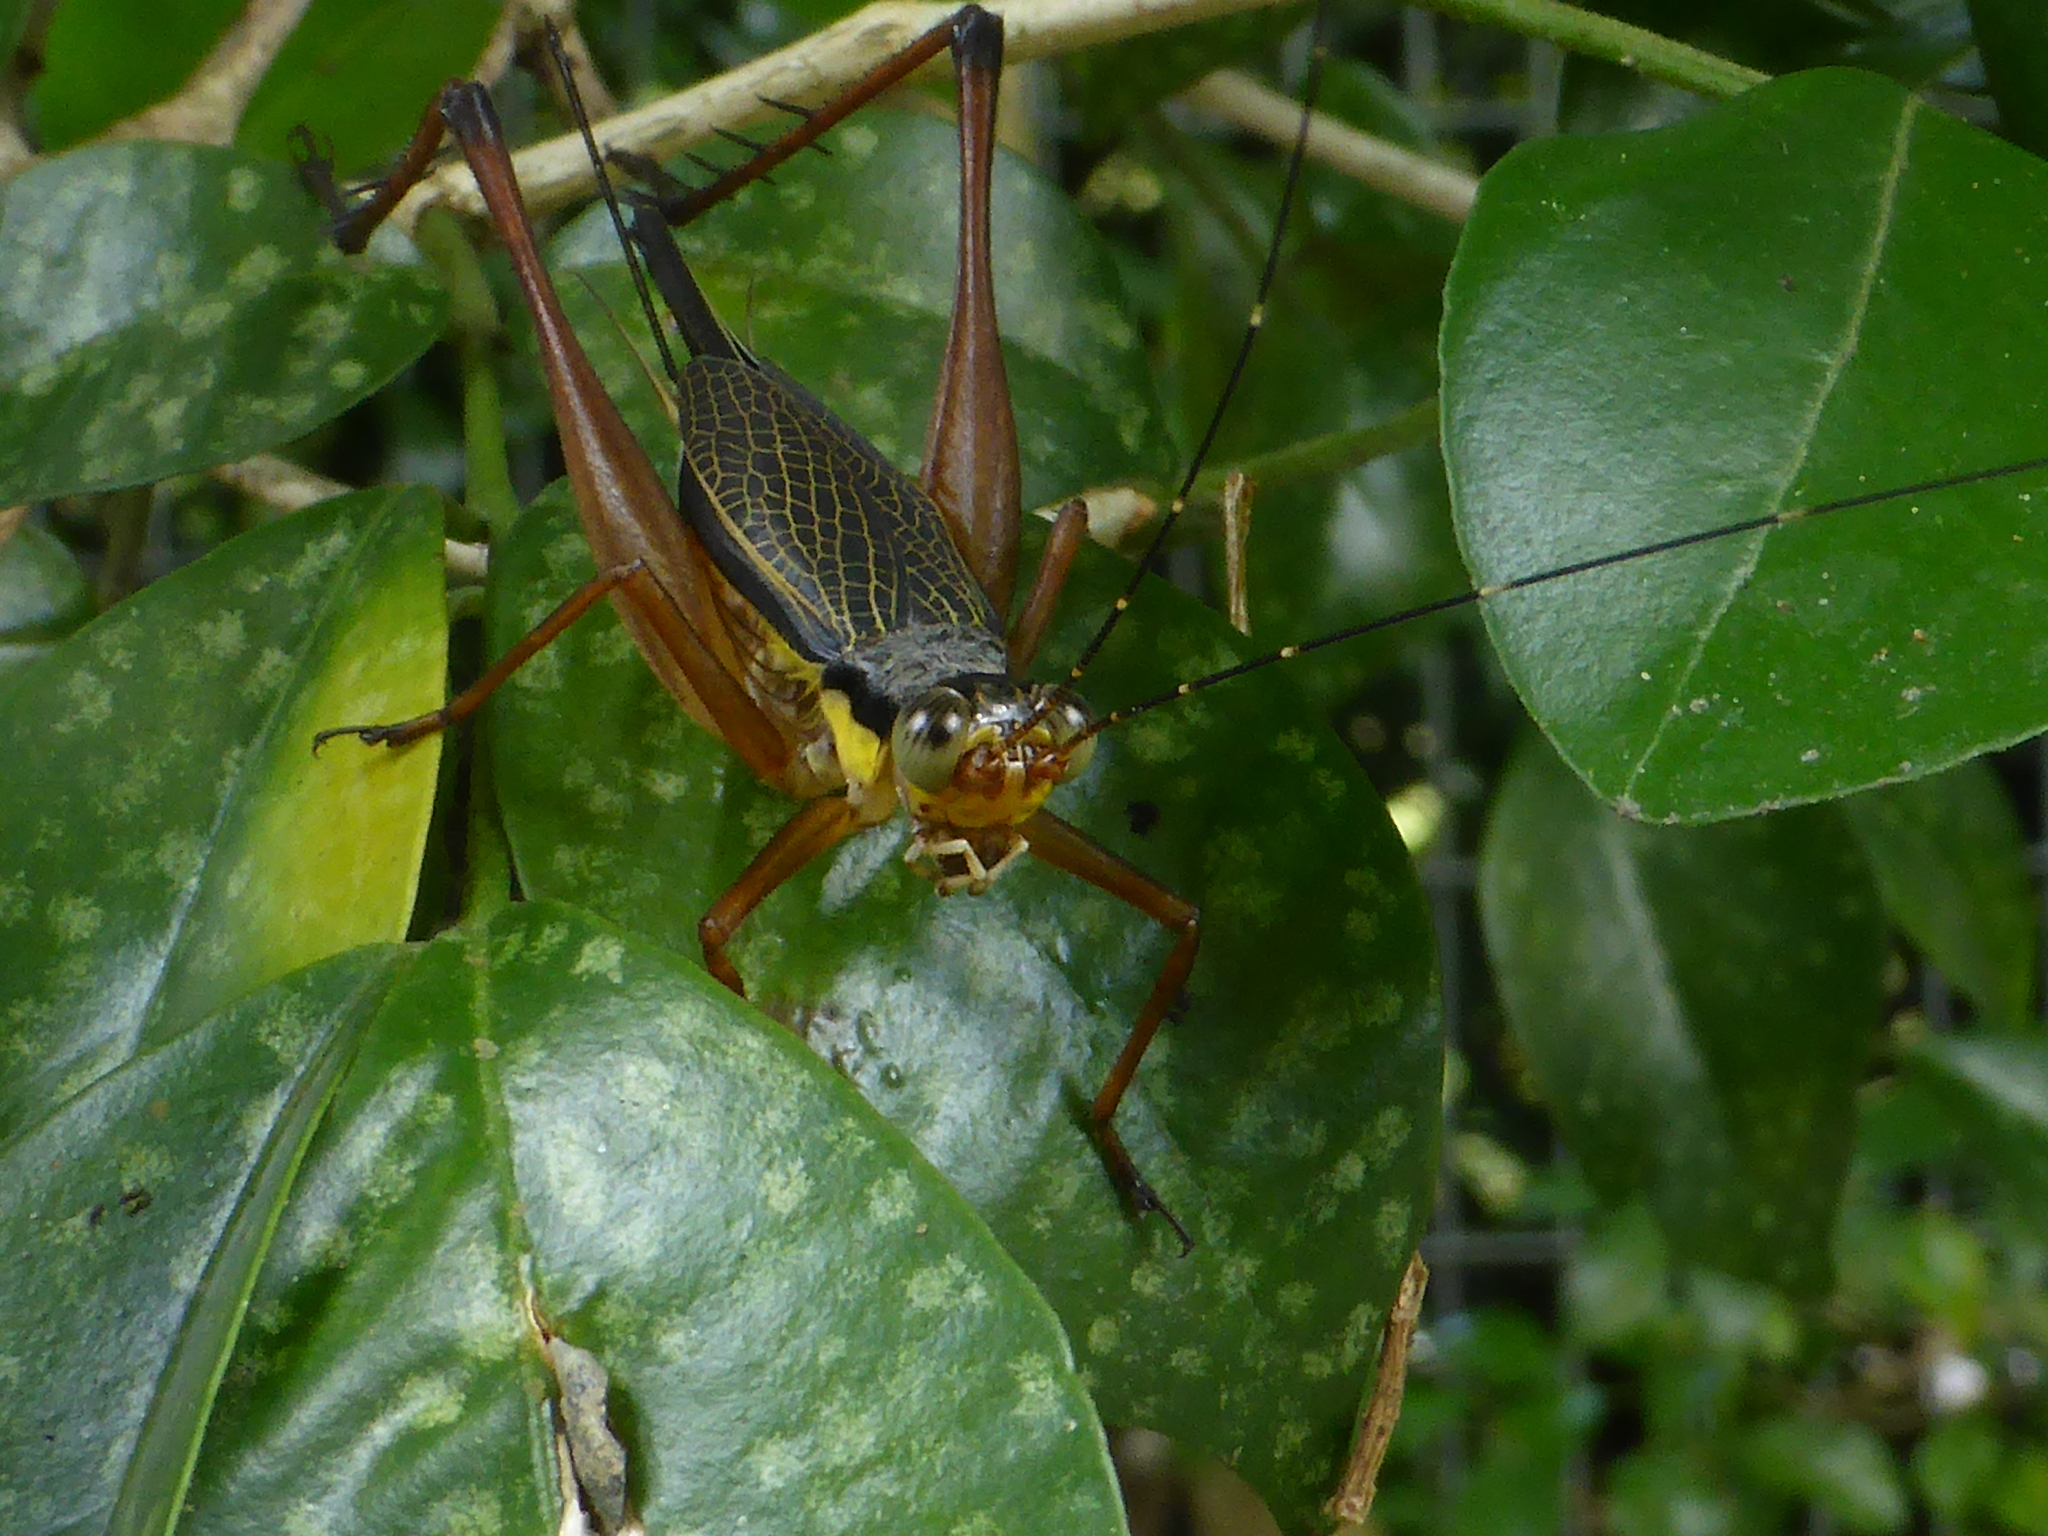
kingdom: Animalia
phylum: Arthropoda
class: Insecta
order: Orthoptera
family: Gryllidae
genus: Nisitrus
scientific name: Nisitrus malaya
